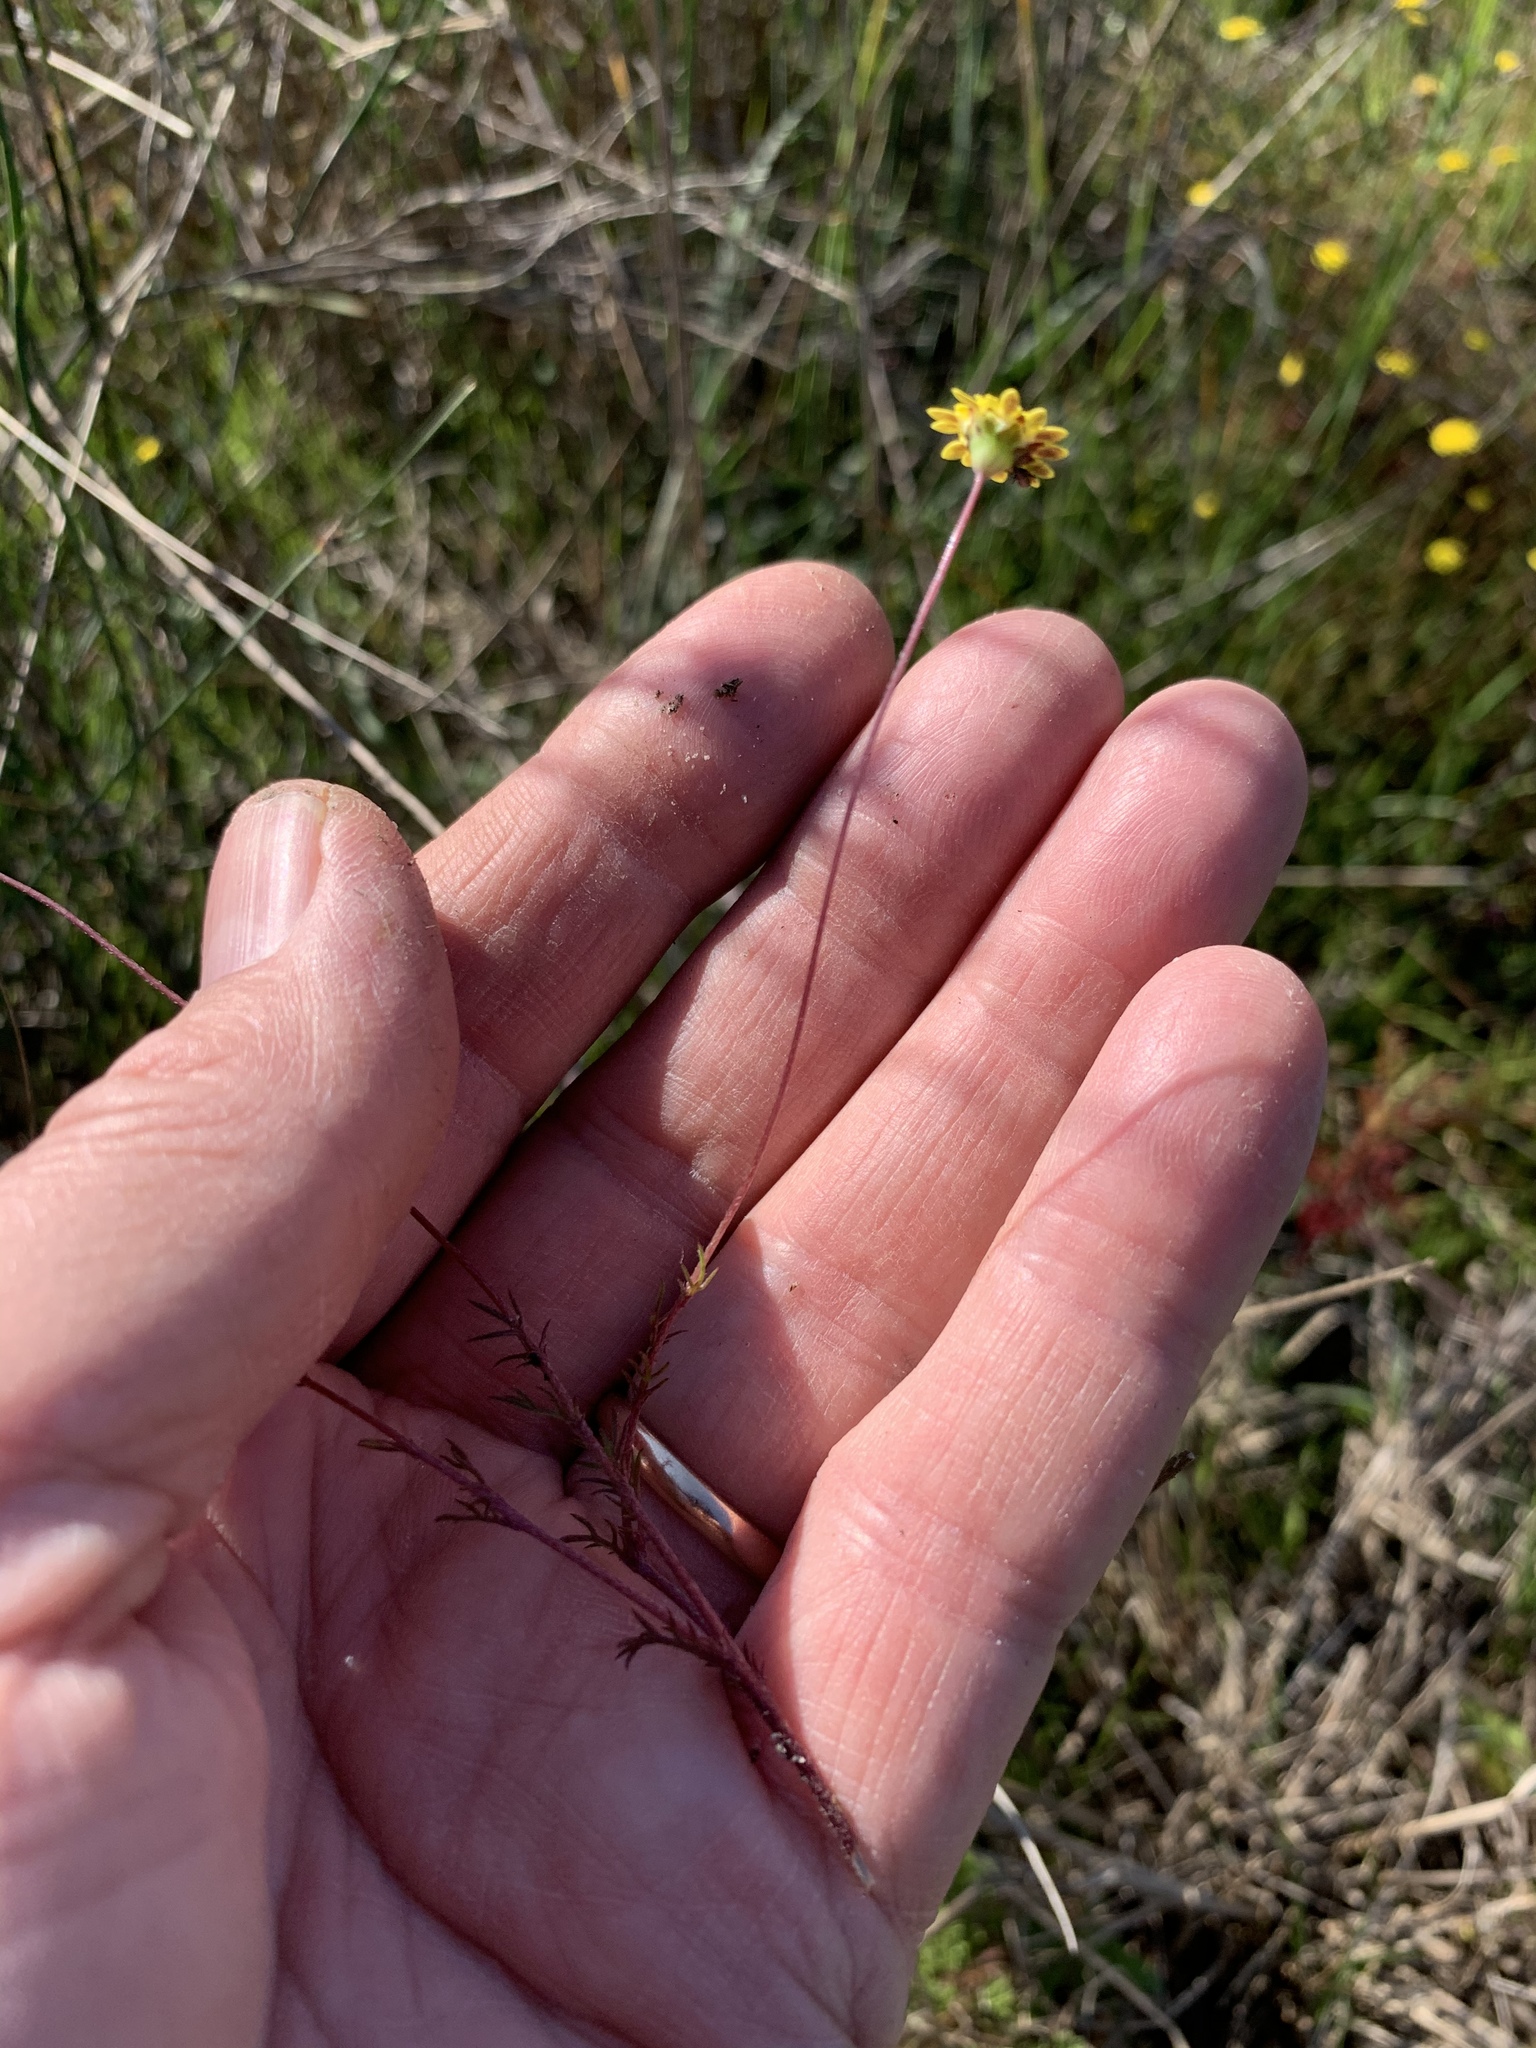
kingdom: Plantae
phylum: Tracheophyta
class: Magnoliopsida
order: Asterales
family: Asteraceae
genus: Cotula
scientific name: Cotula pruinosa
